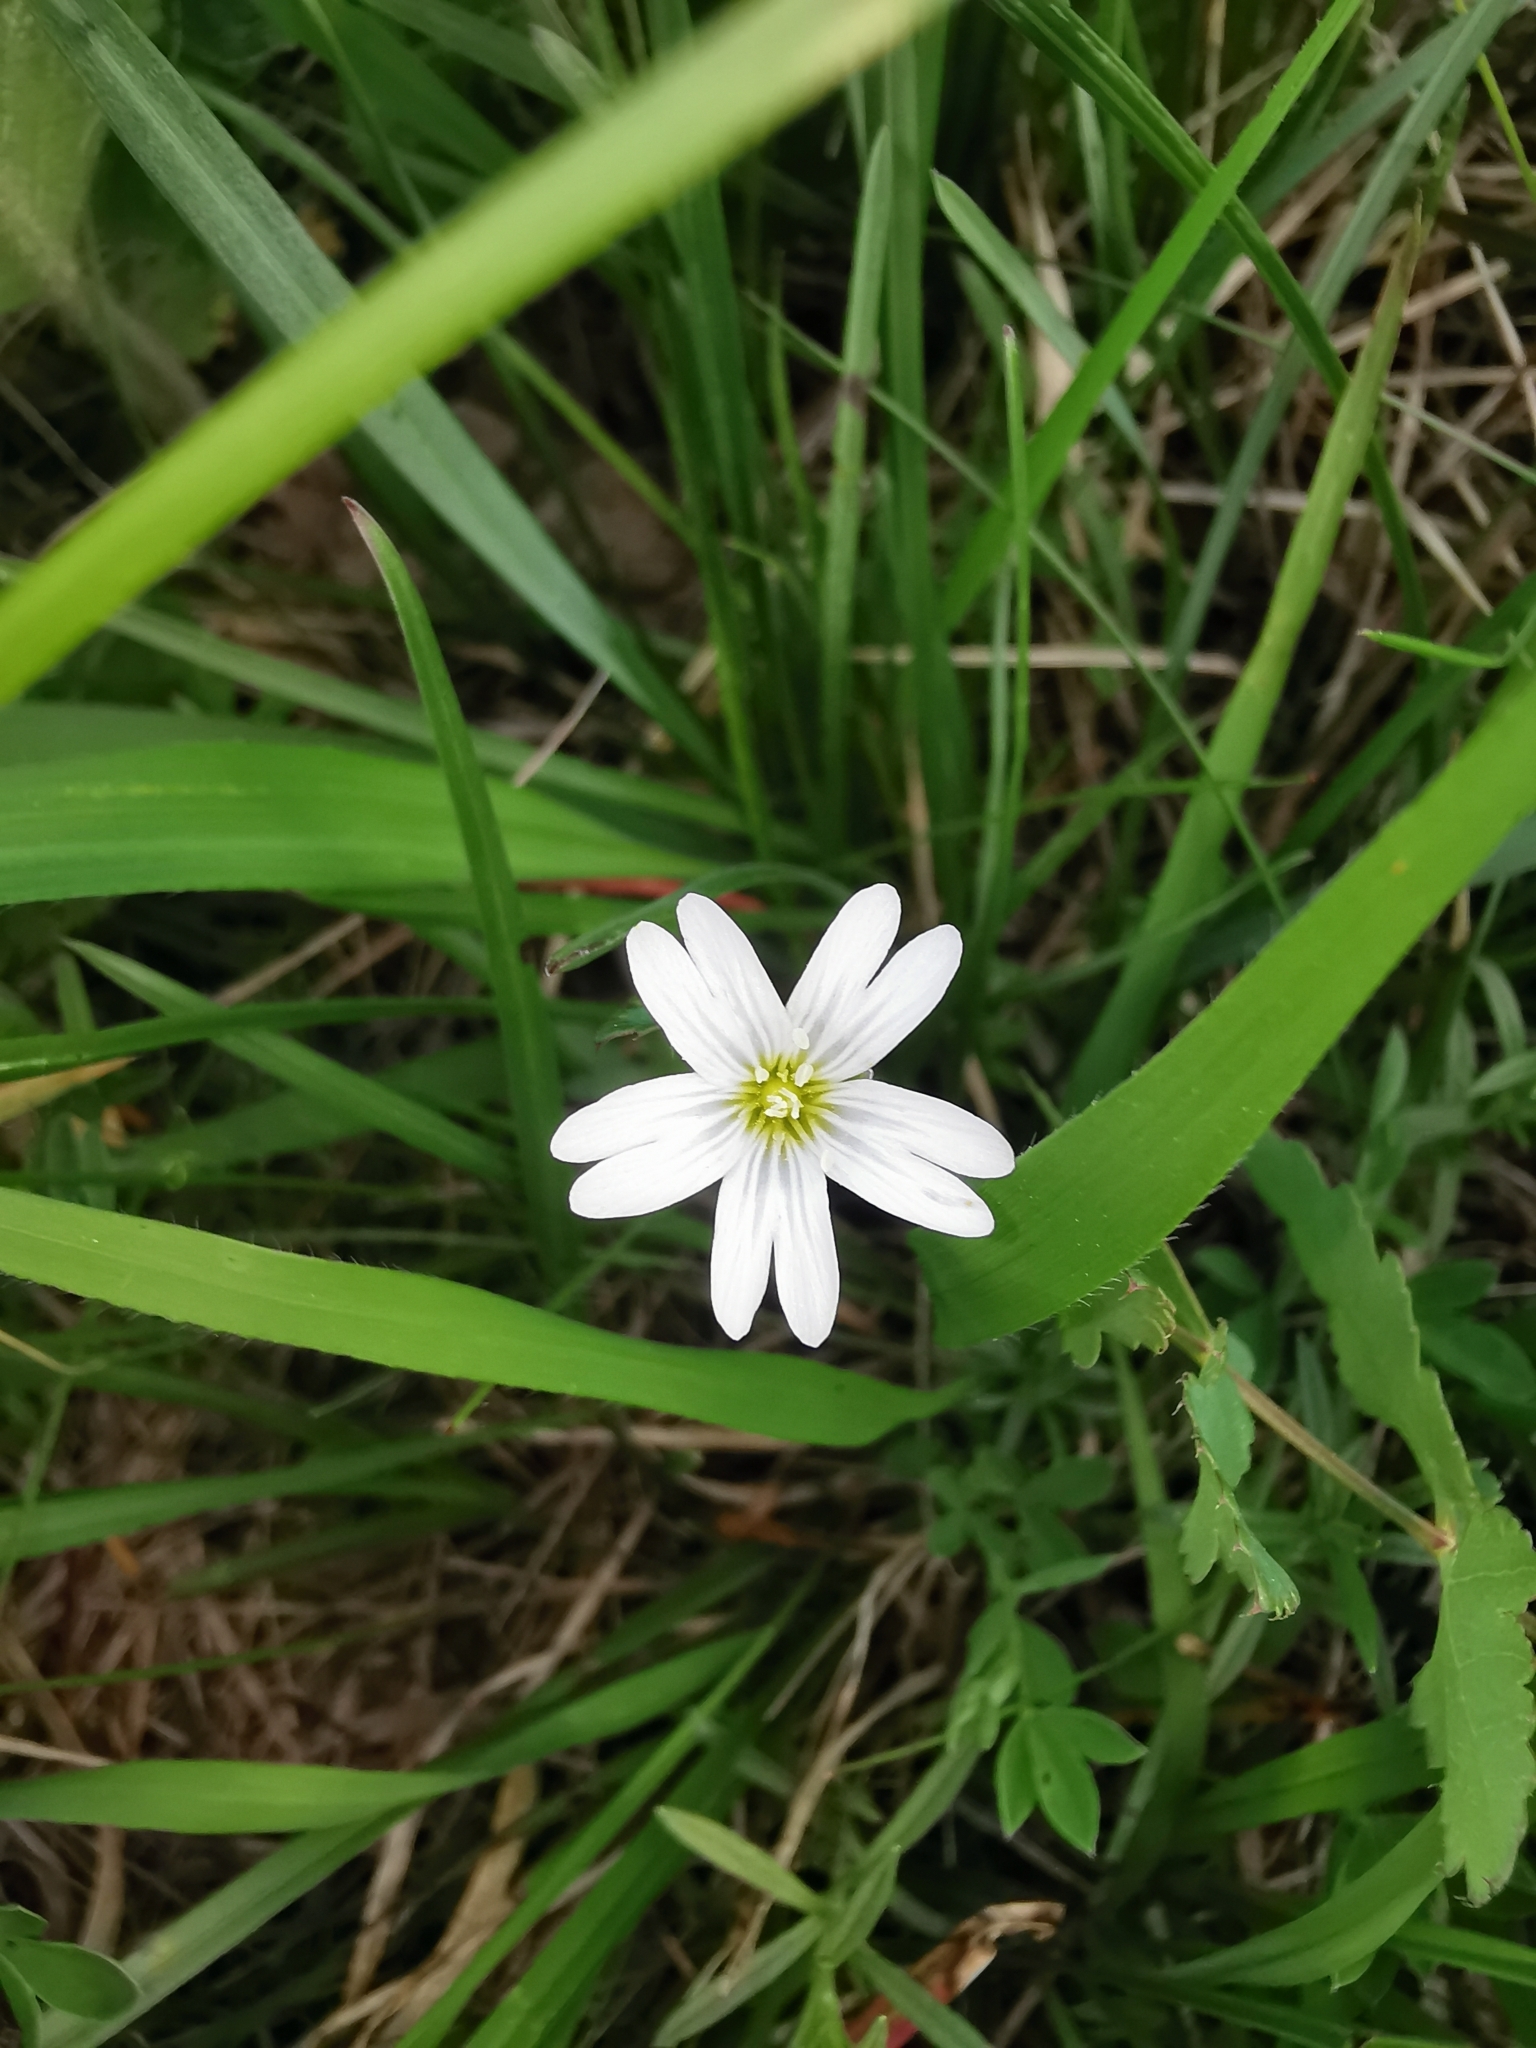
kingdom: Plantae
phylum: Tracheophyta
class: Magnoliopsida
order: Caryophyllales
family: Caryophyllaceae
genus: Cerastium
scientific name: Cerastium arvense
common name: Field mouse-ear
